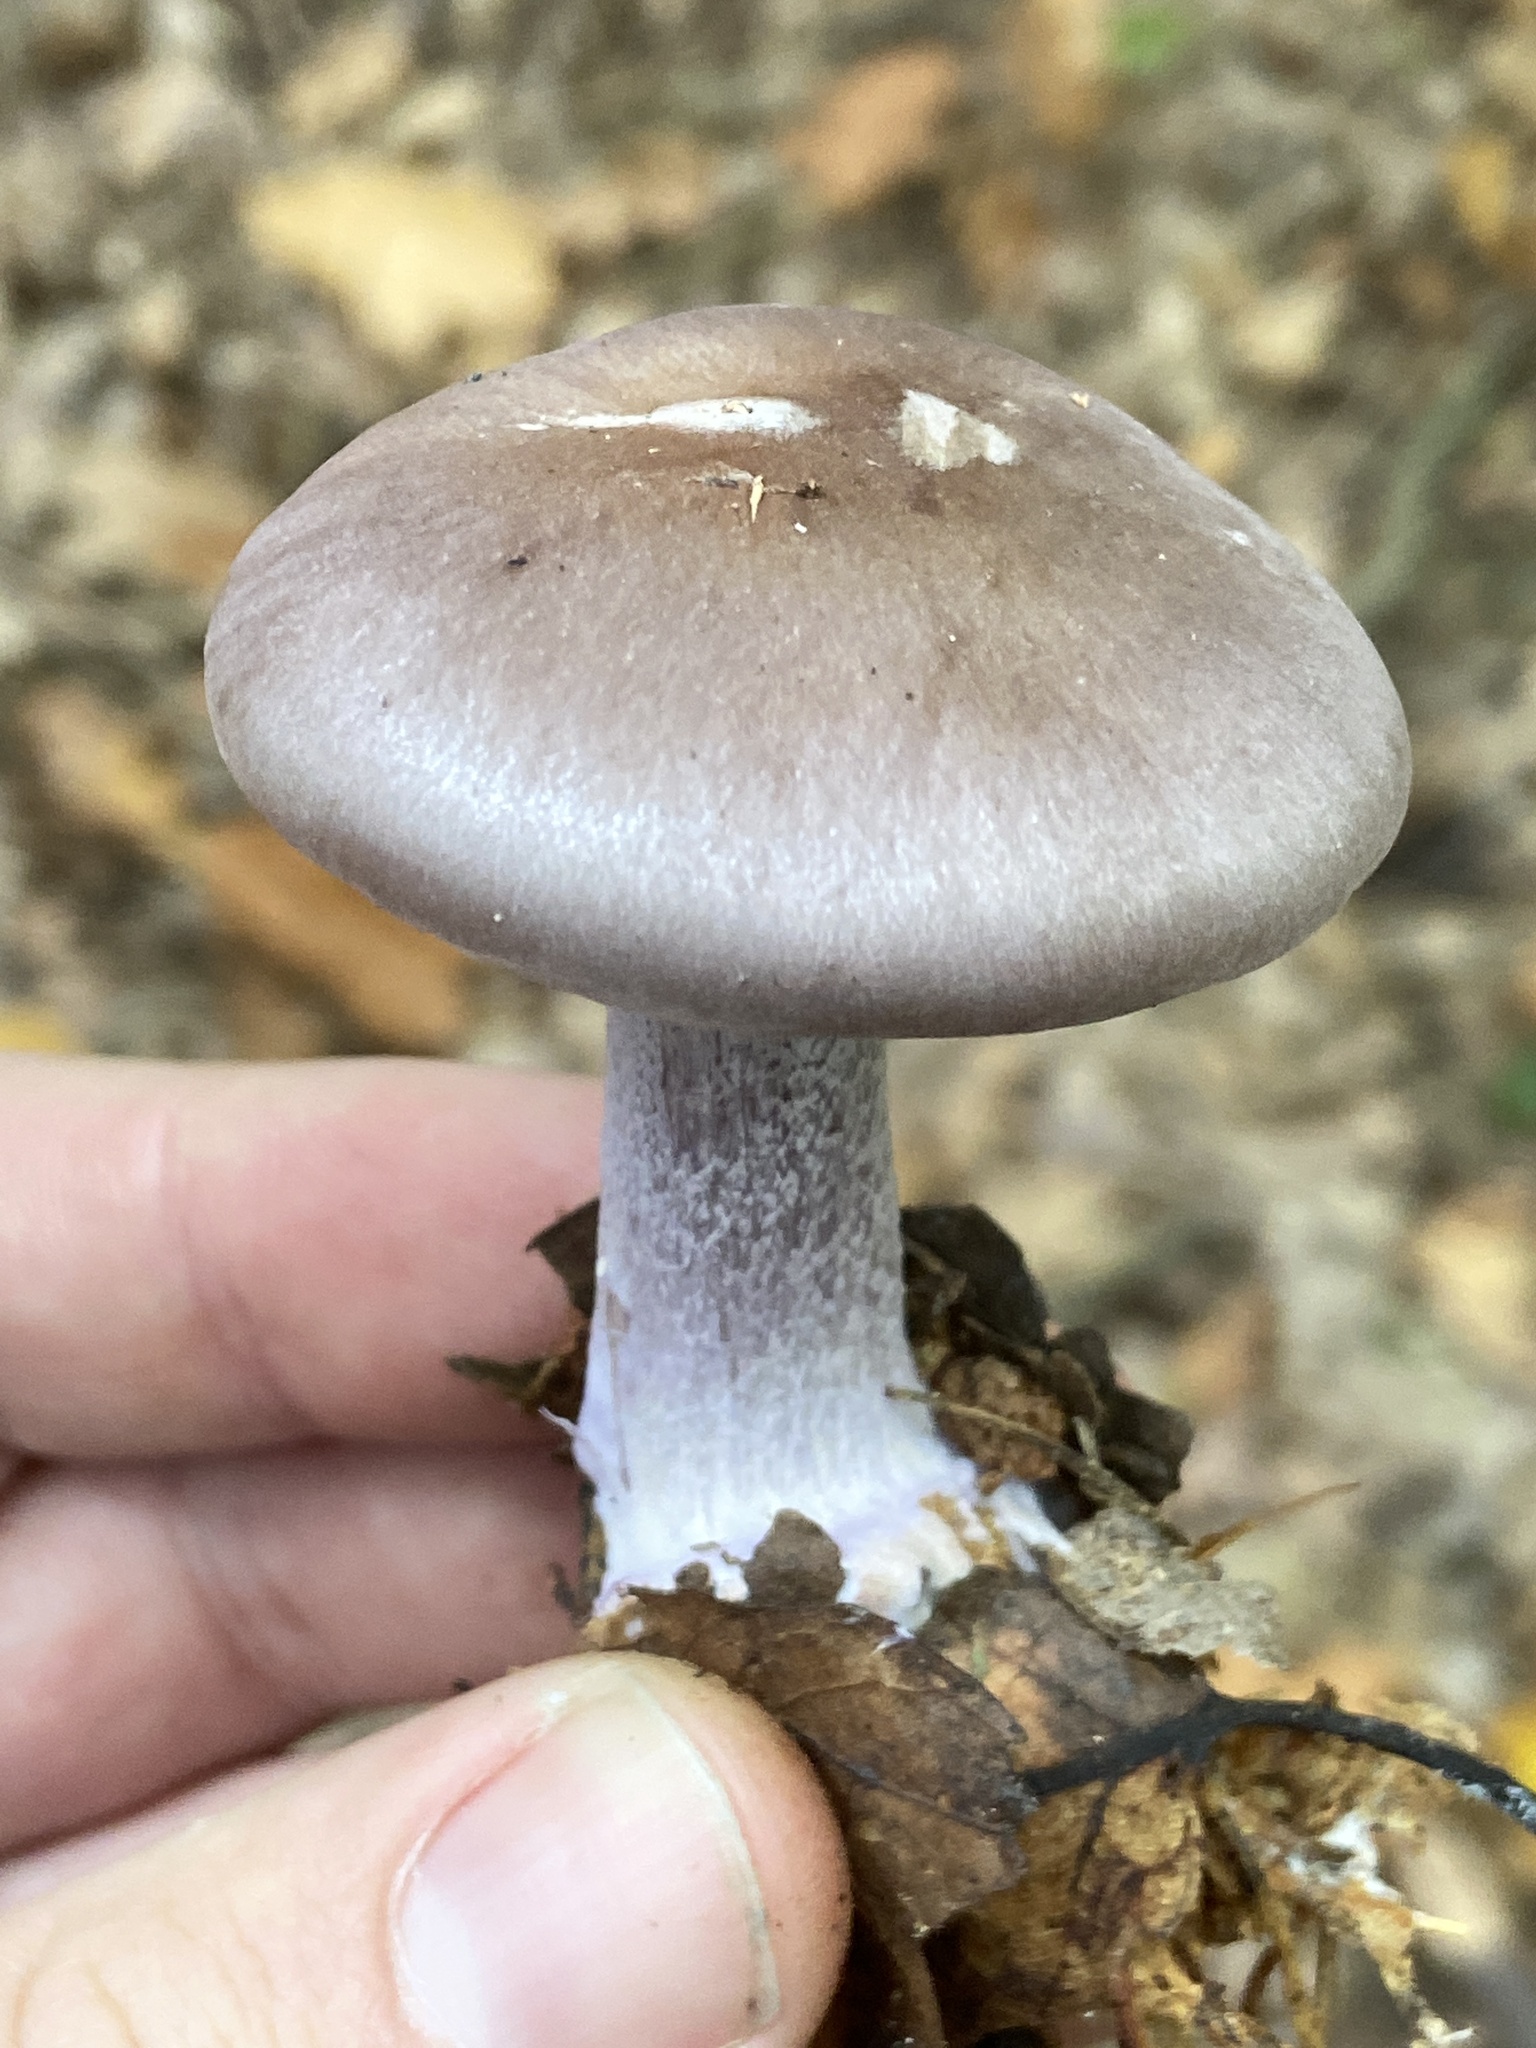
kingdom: Fungi
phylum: Basidiomycota
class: Agaricomycetes
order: Agaricales
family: Tricholomataceae
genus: Collybia
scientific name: Collybia
